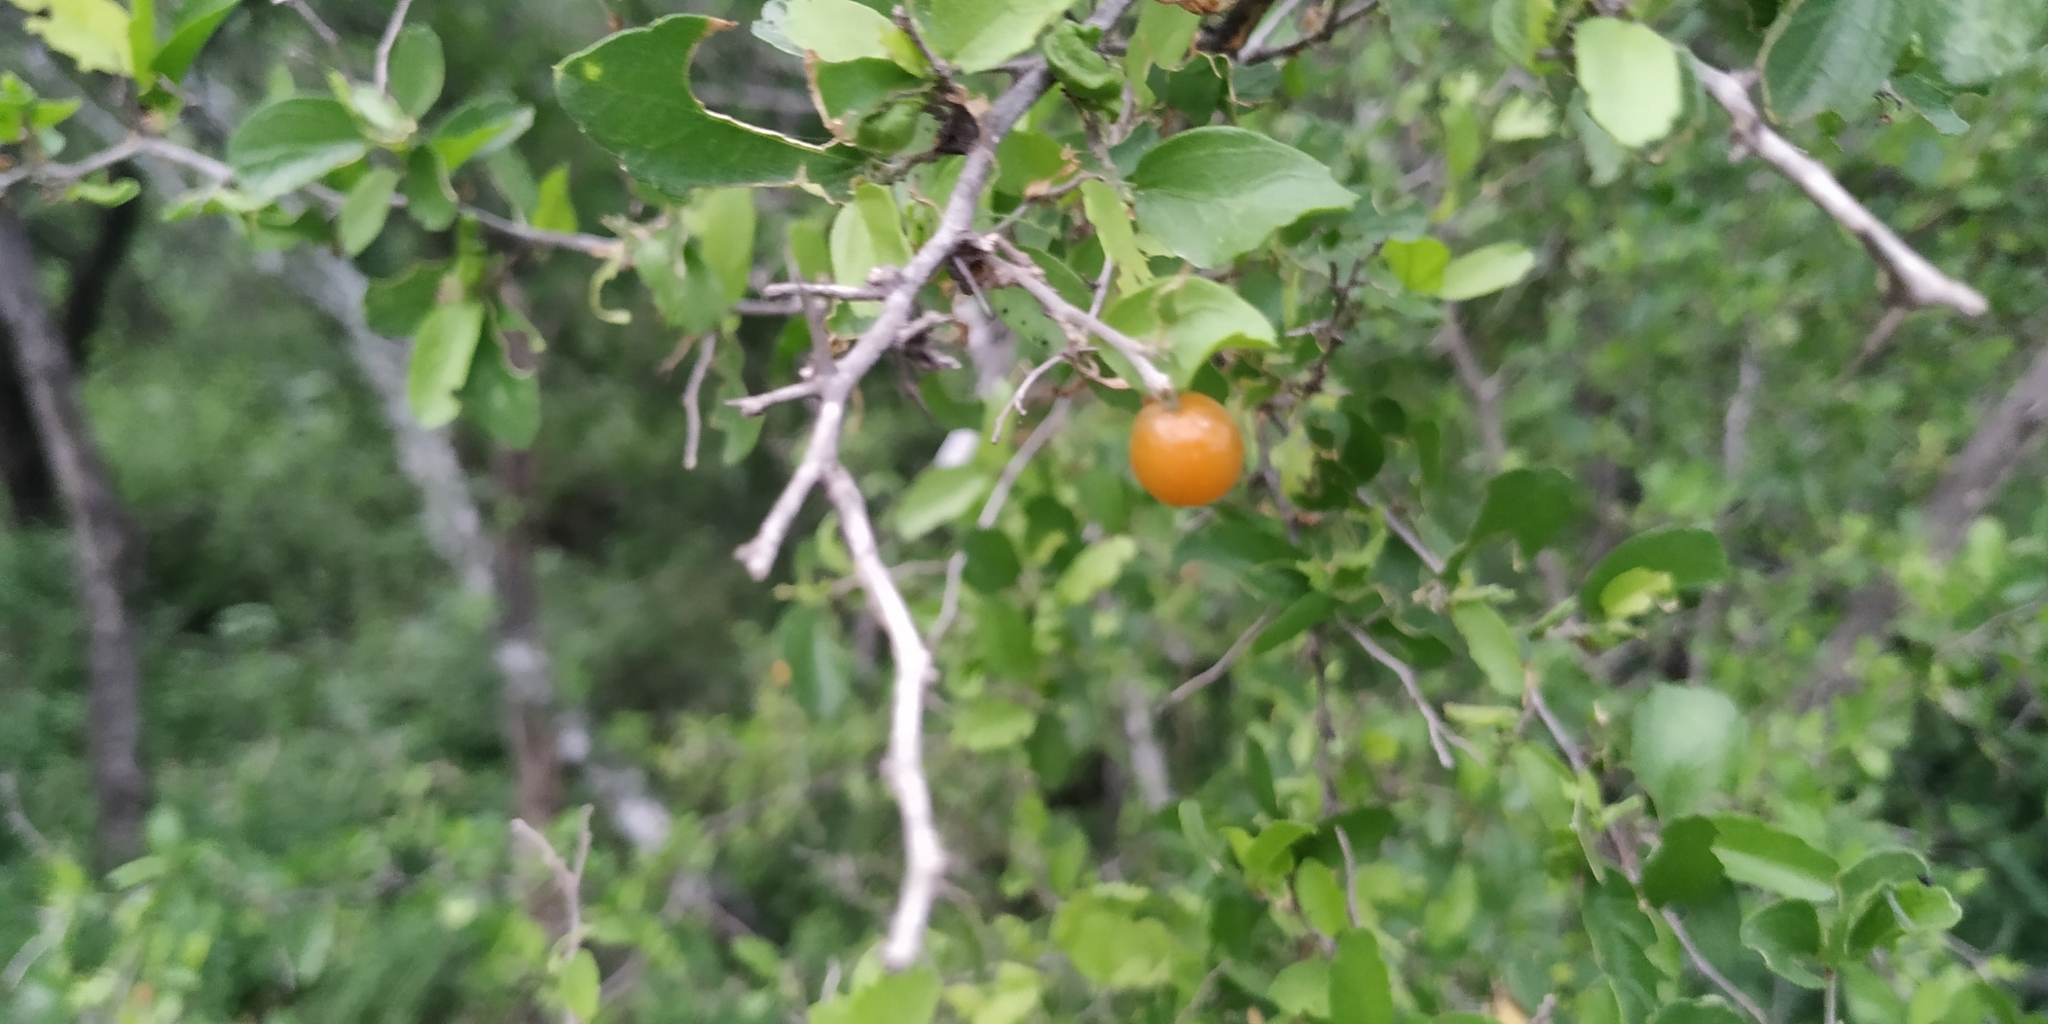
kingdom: Plantae
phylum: Tracheophyta
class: Magnoliopsida
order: Rosales
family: Cannabaceae
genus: Celtis
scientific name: Celtis pallida
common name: Desert hackberry
